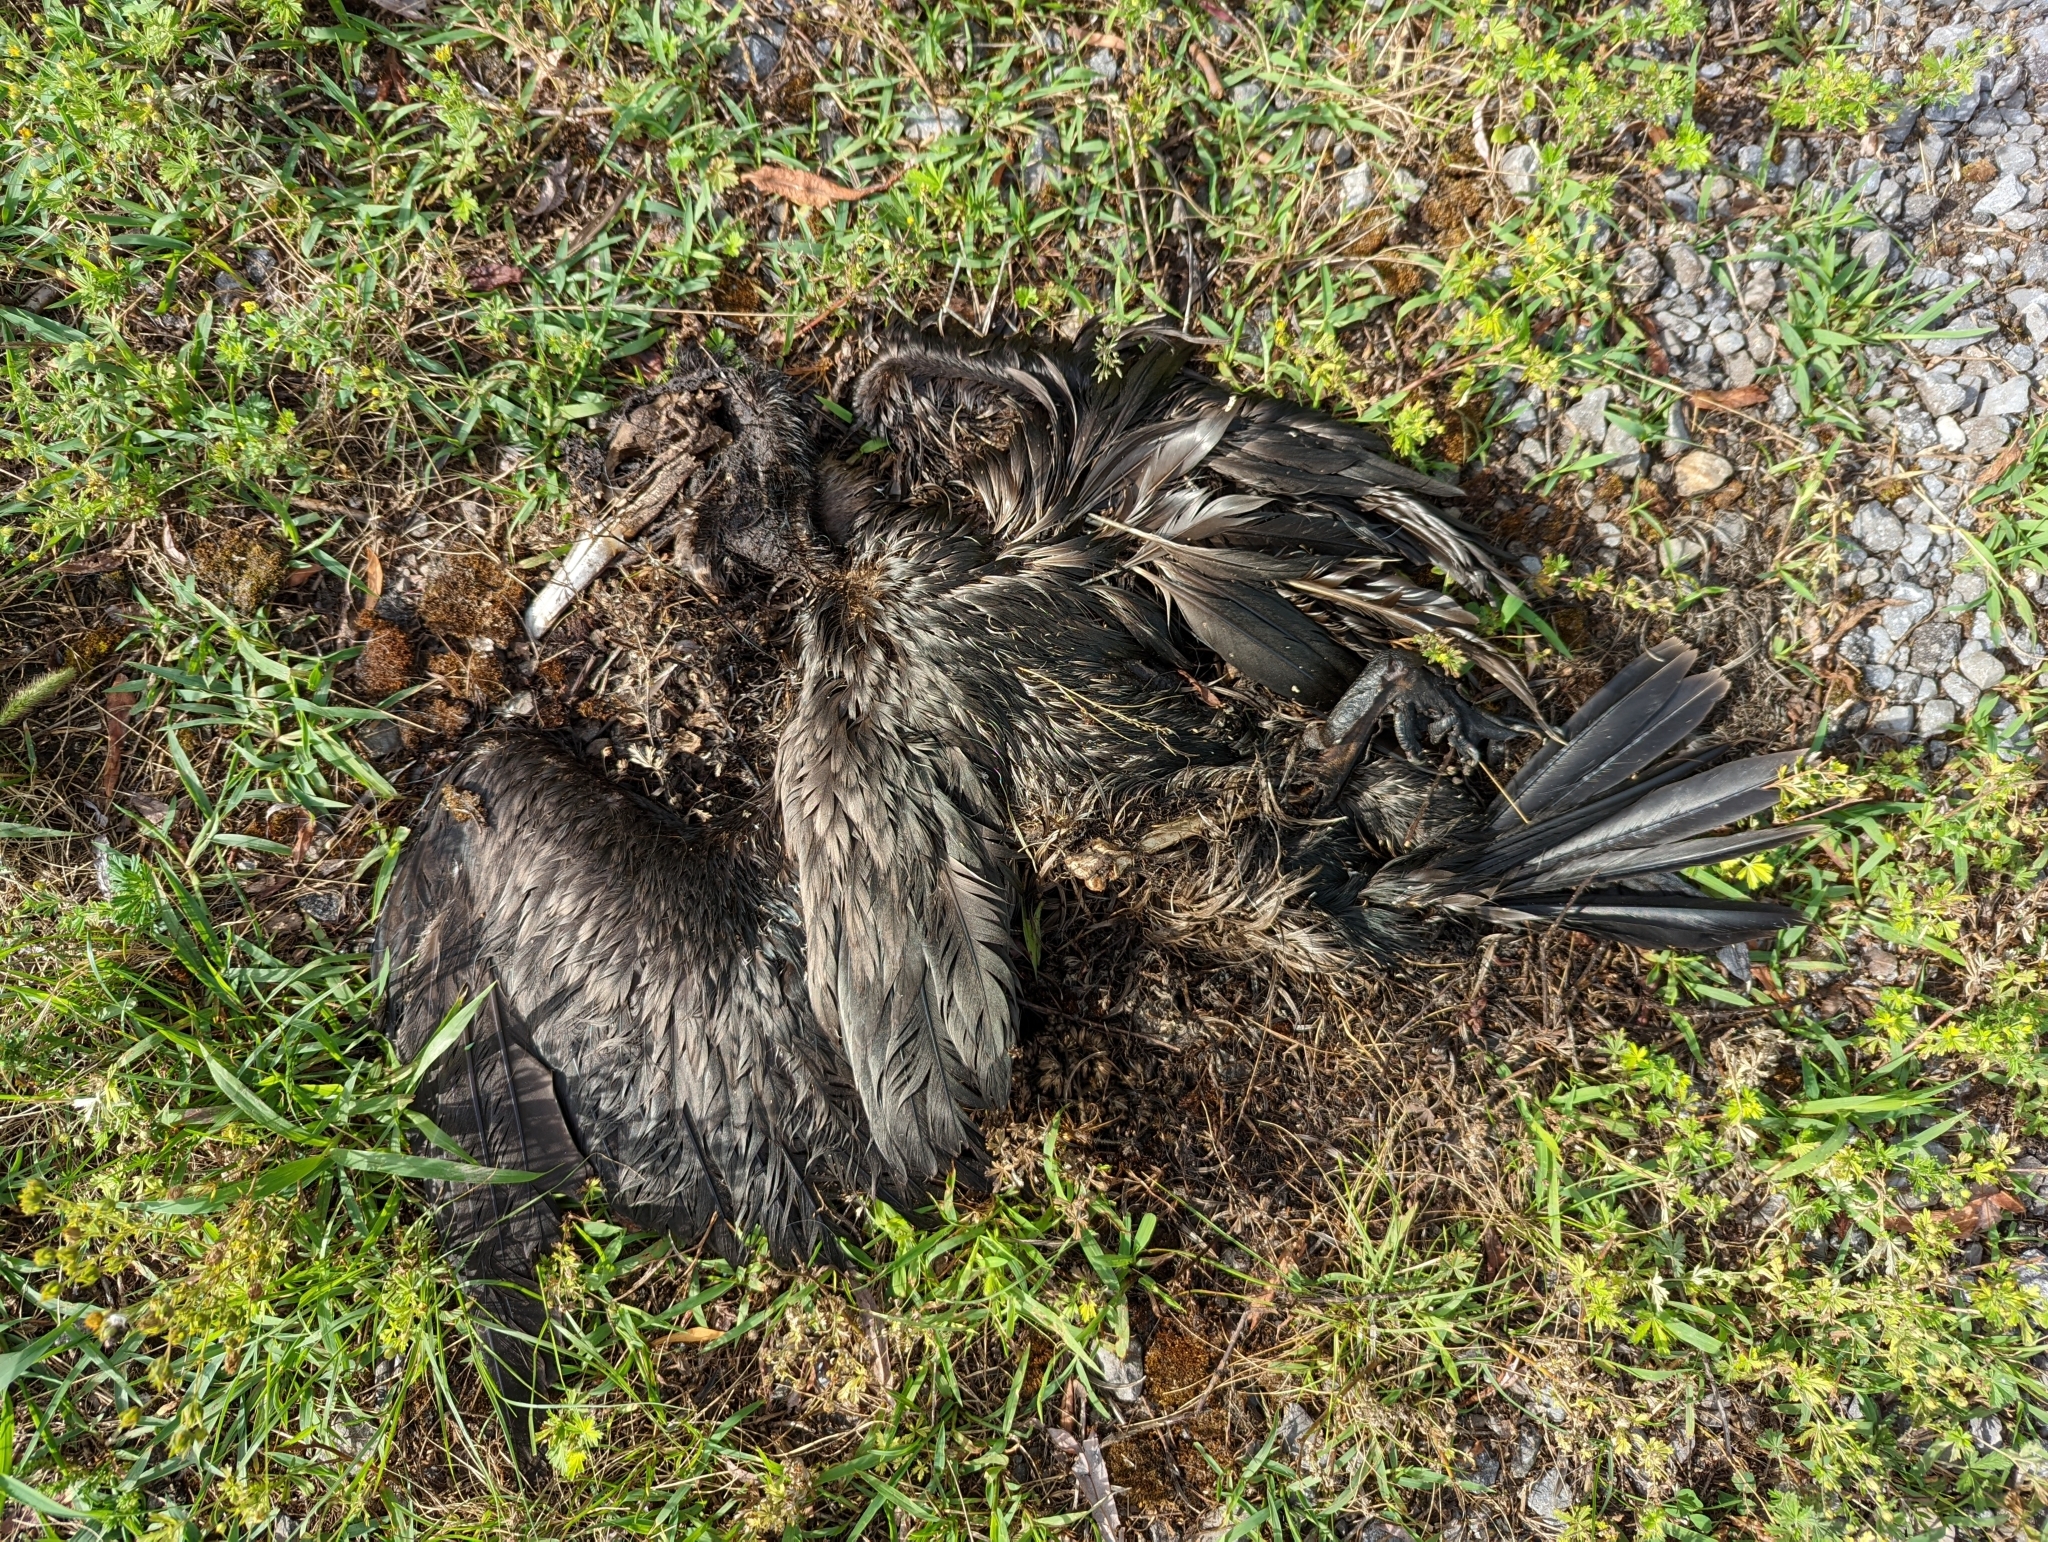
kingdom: Animalia
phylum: Chordata
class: Aves
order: Suliformes
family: Phalacrocoracidae
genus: Phalacrocorax
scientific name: Phalacrocorax auritus
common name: Double-crested cormorant
